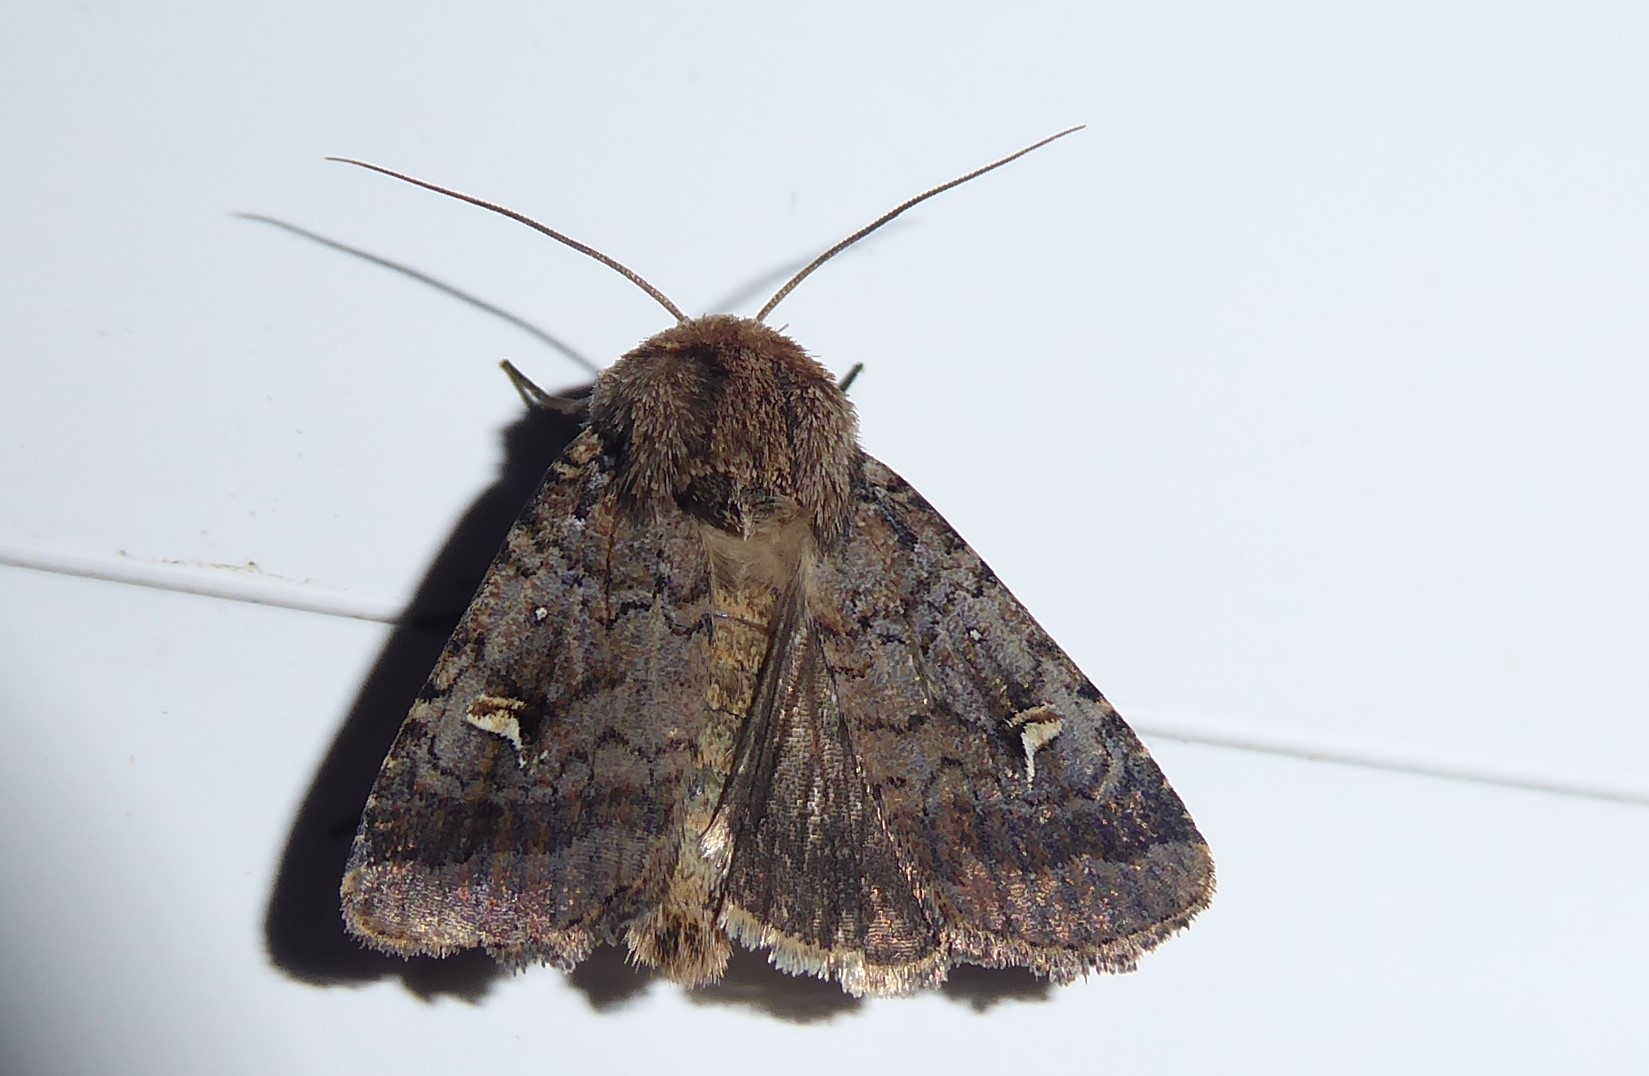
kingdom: Animalia
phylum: Arthropoda
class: Insecta
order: Lepidoptera
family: Noctuidae
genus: Proteuxoa
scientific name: Proteuxoa tetronycha
